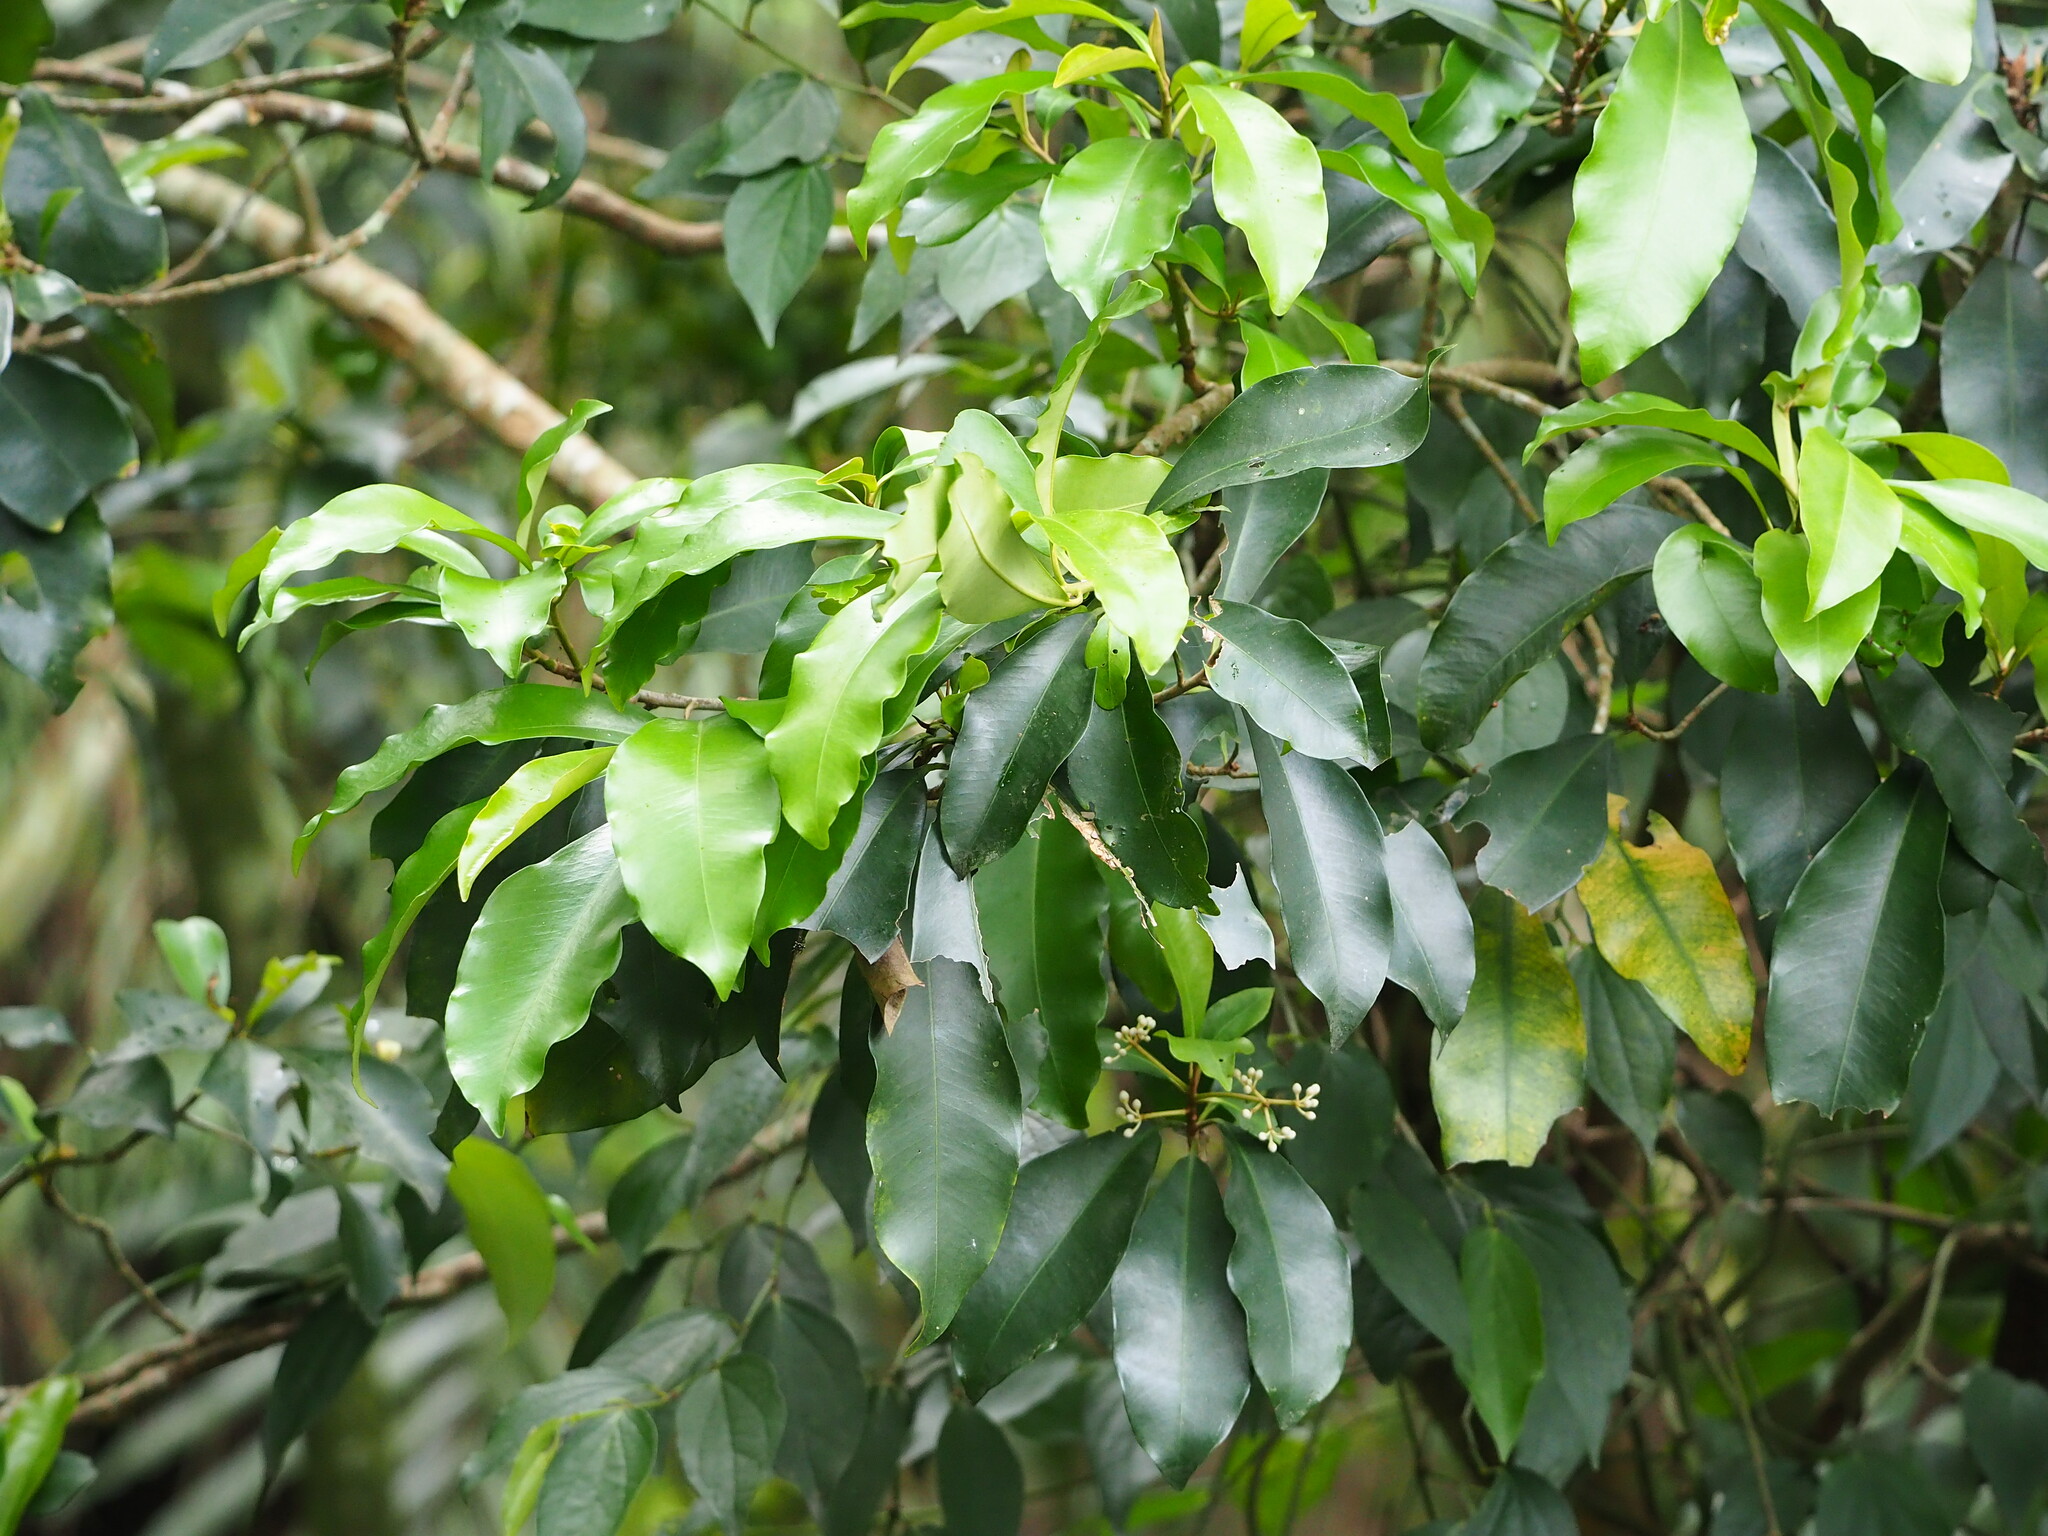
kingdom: Plantae
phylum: Tracheophyta
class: Magnoliopsida
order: Ericales
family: Primulaceae
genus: Ardisia
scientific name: Ardisia sieboldii
